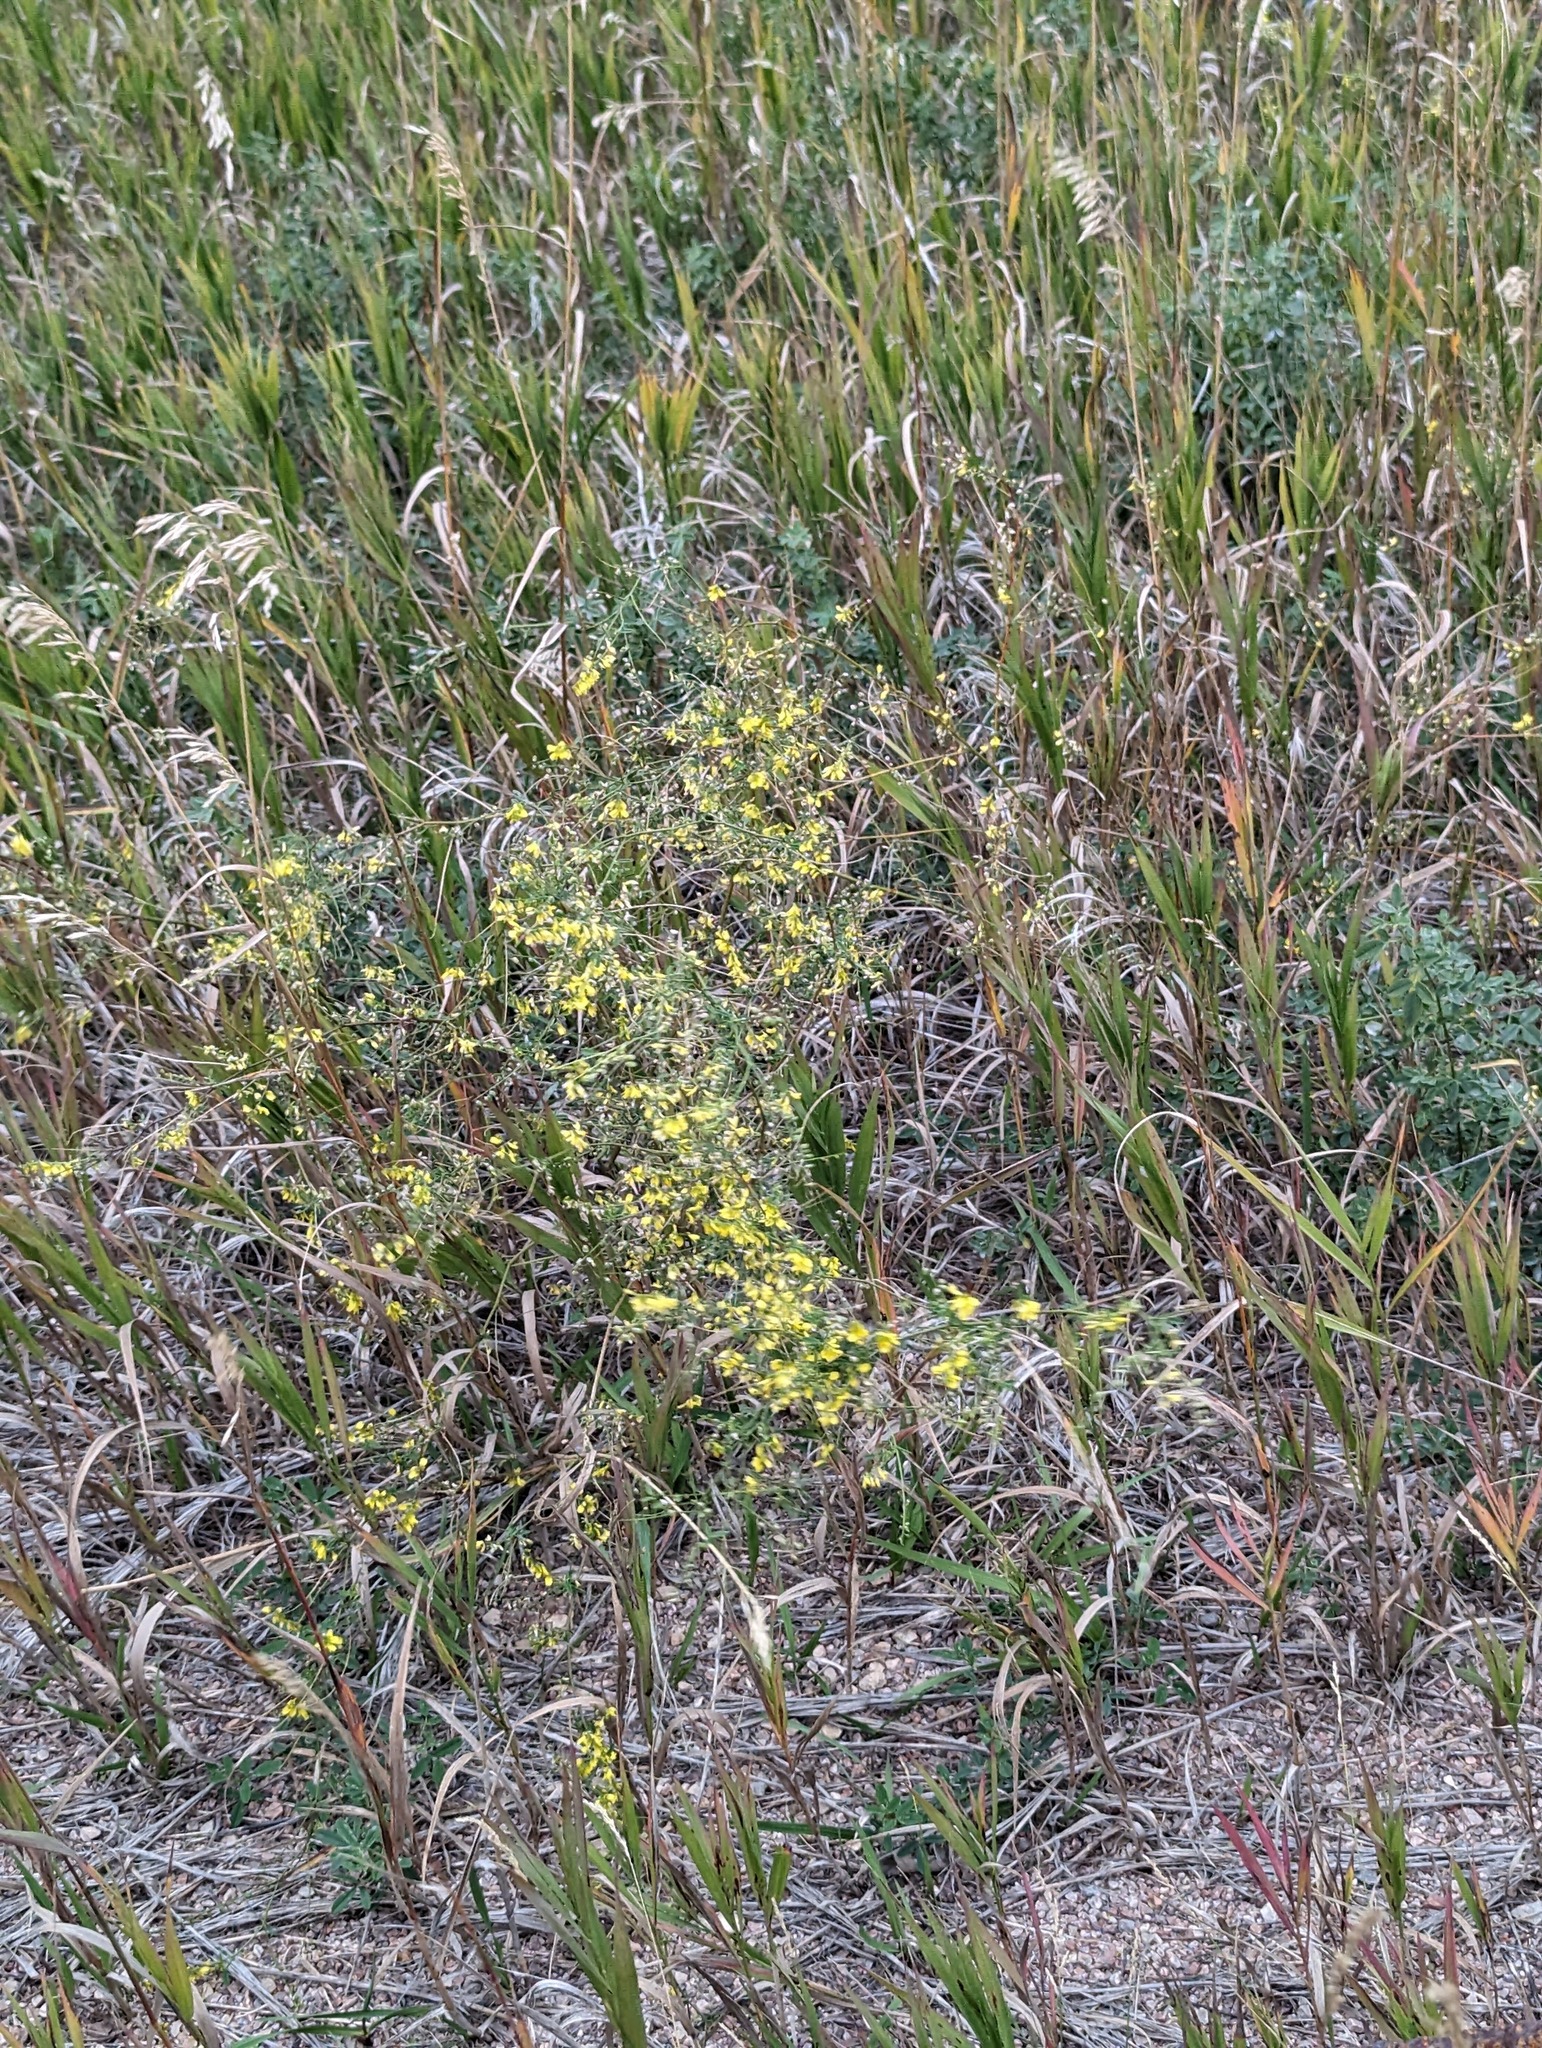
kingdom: Plantae
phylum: Tracheophyta
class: Magnoliopsida
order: Fabales
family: Fabaceae
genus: Melilotus
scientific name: Melilotus officinalis
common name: Sweetclover
